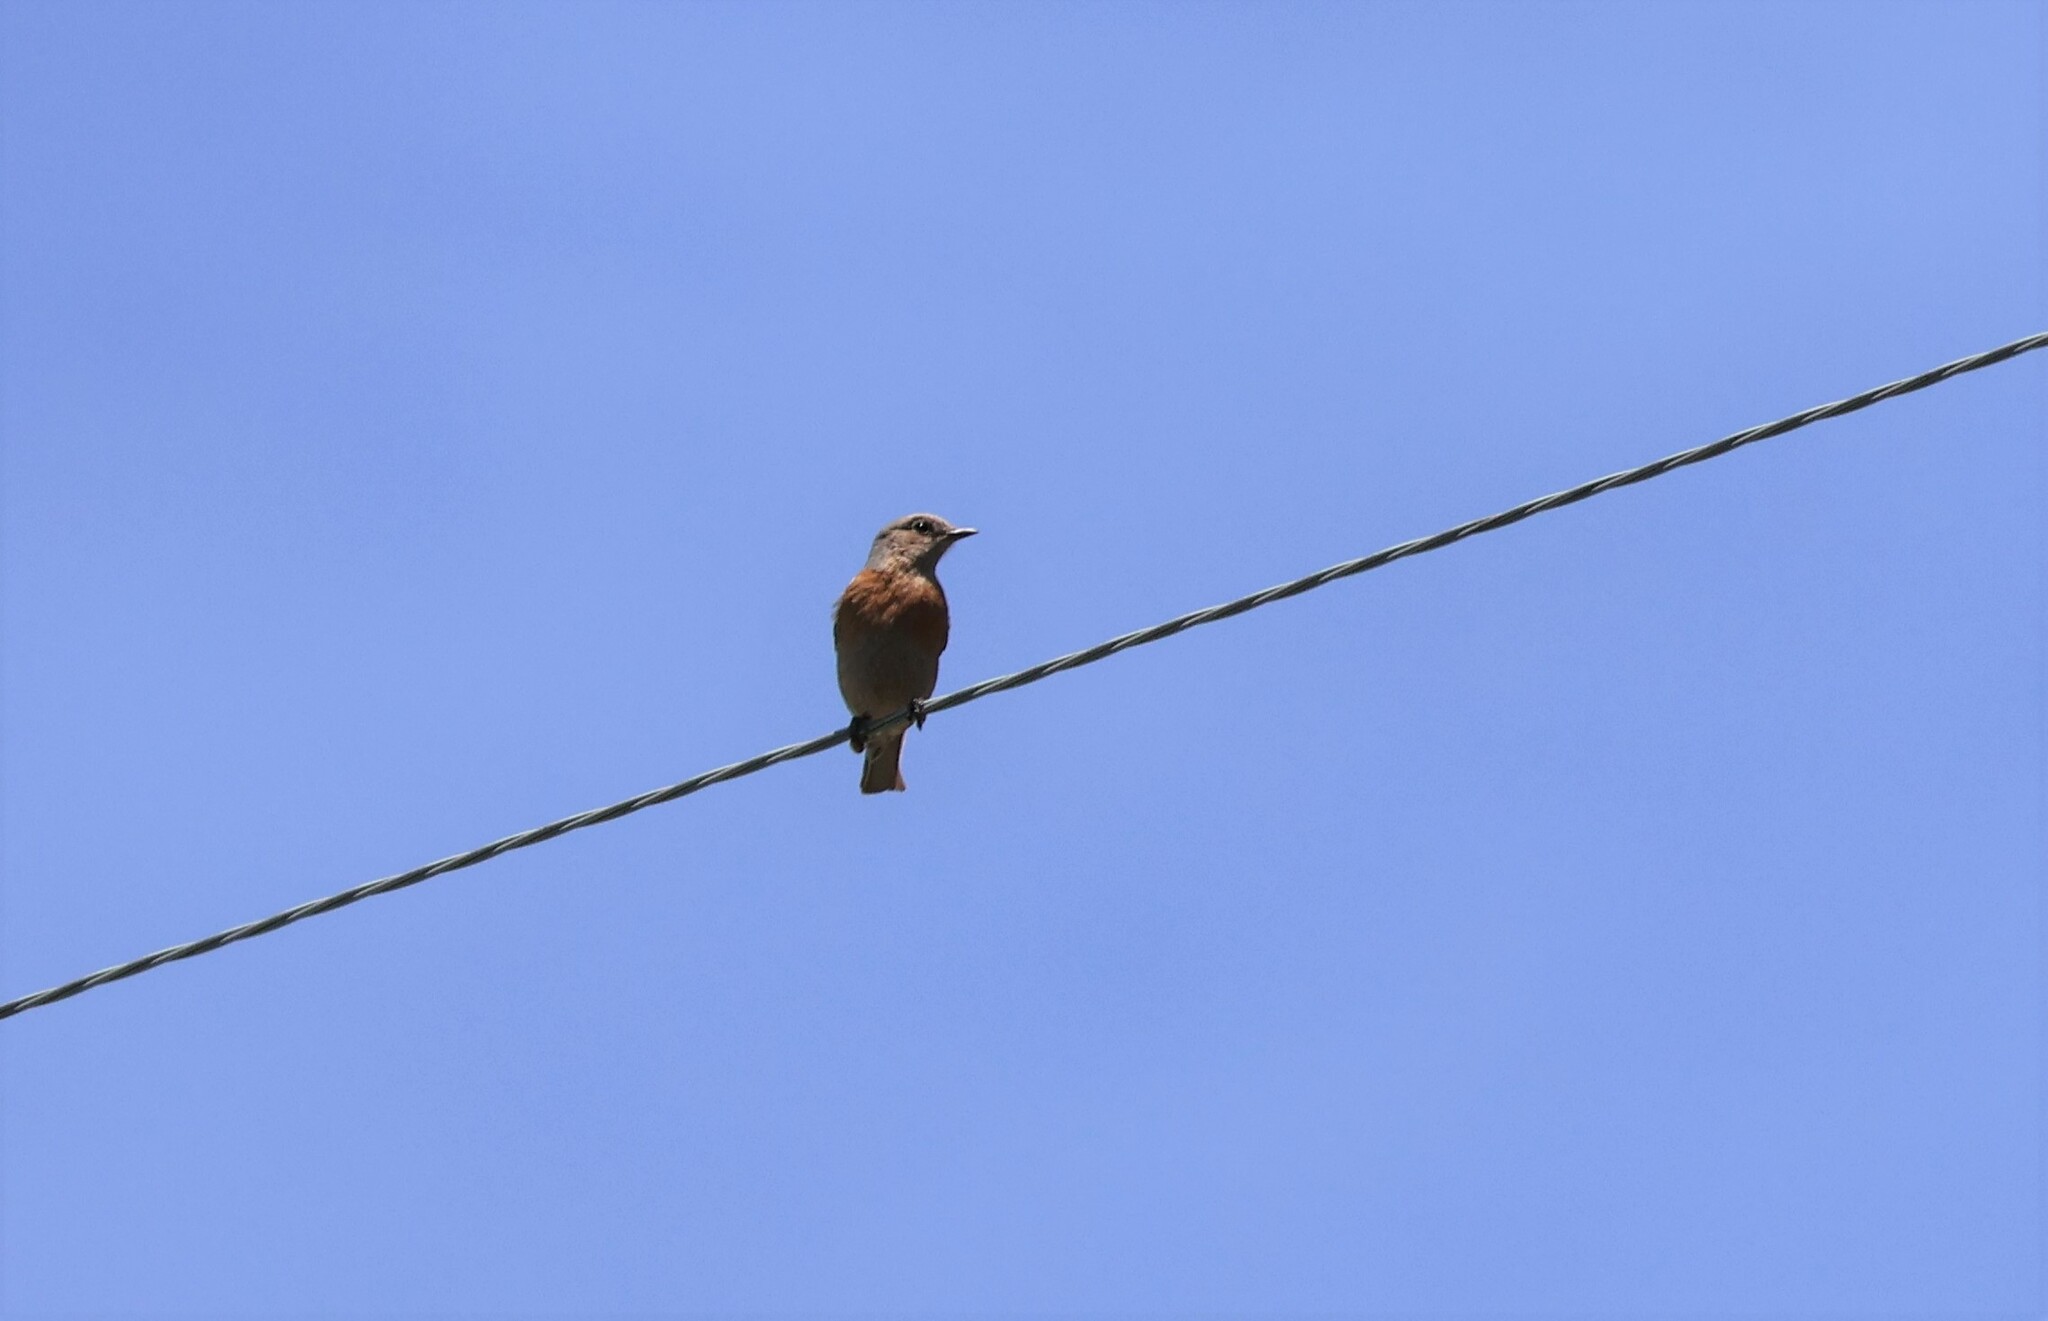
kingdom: Animalia
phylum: Chordata
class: Aves
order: Passeriformes
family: Turdidae
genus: Sialia
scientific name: Sialia mexicana
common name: Western bluebird
